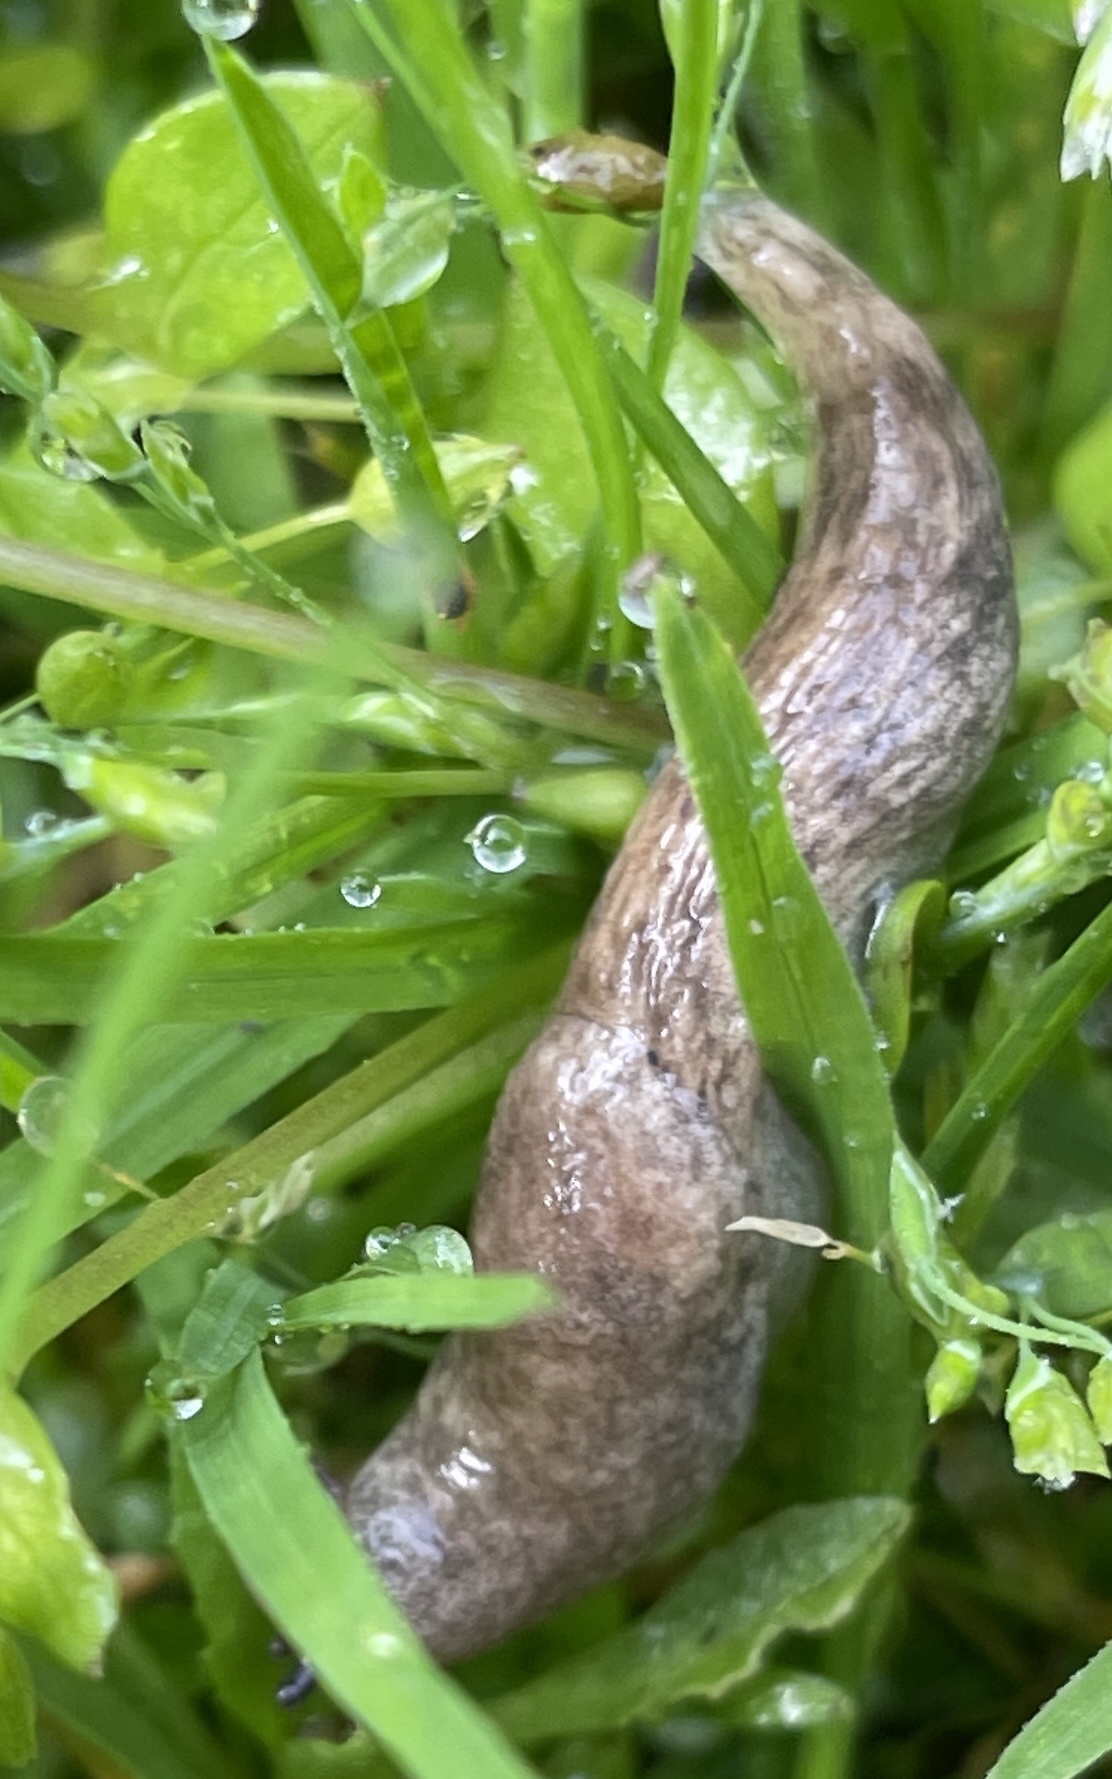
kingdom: Animalia
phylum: Mollusca
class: Gastropoda
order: Stylommatophora
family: Agriolimacidae
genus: Deroceras
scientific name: Deroceras reticulatum
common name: Gray field slug
